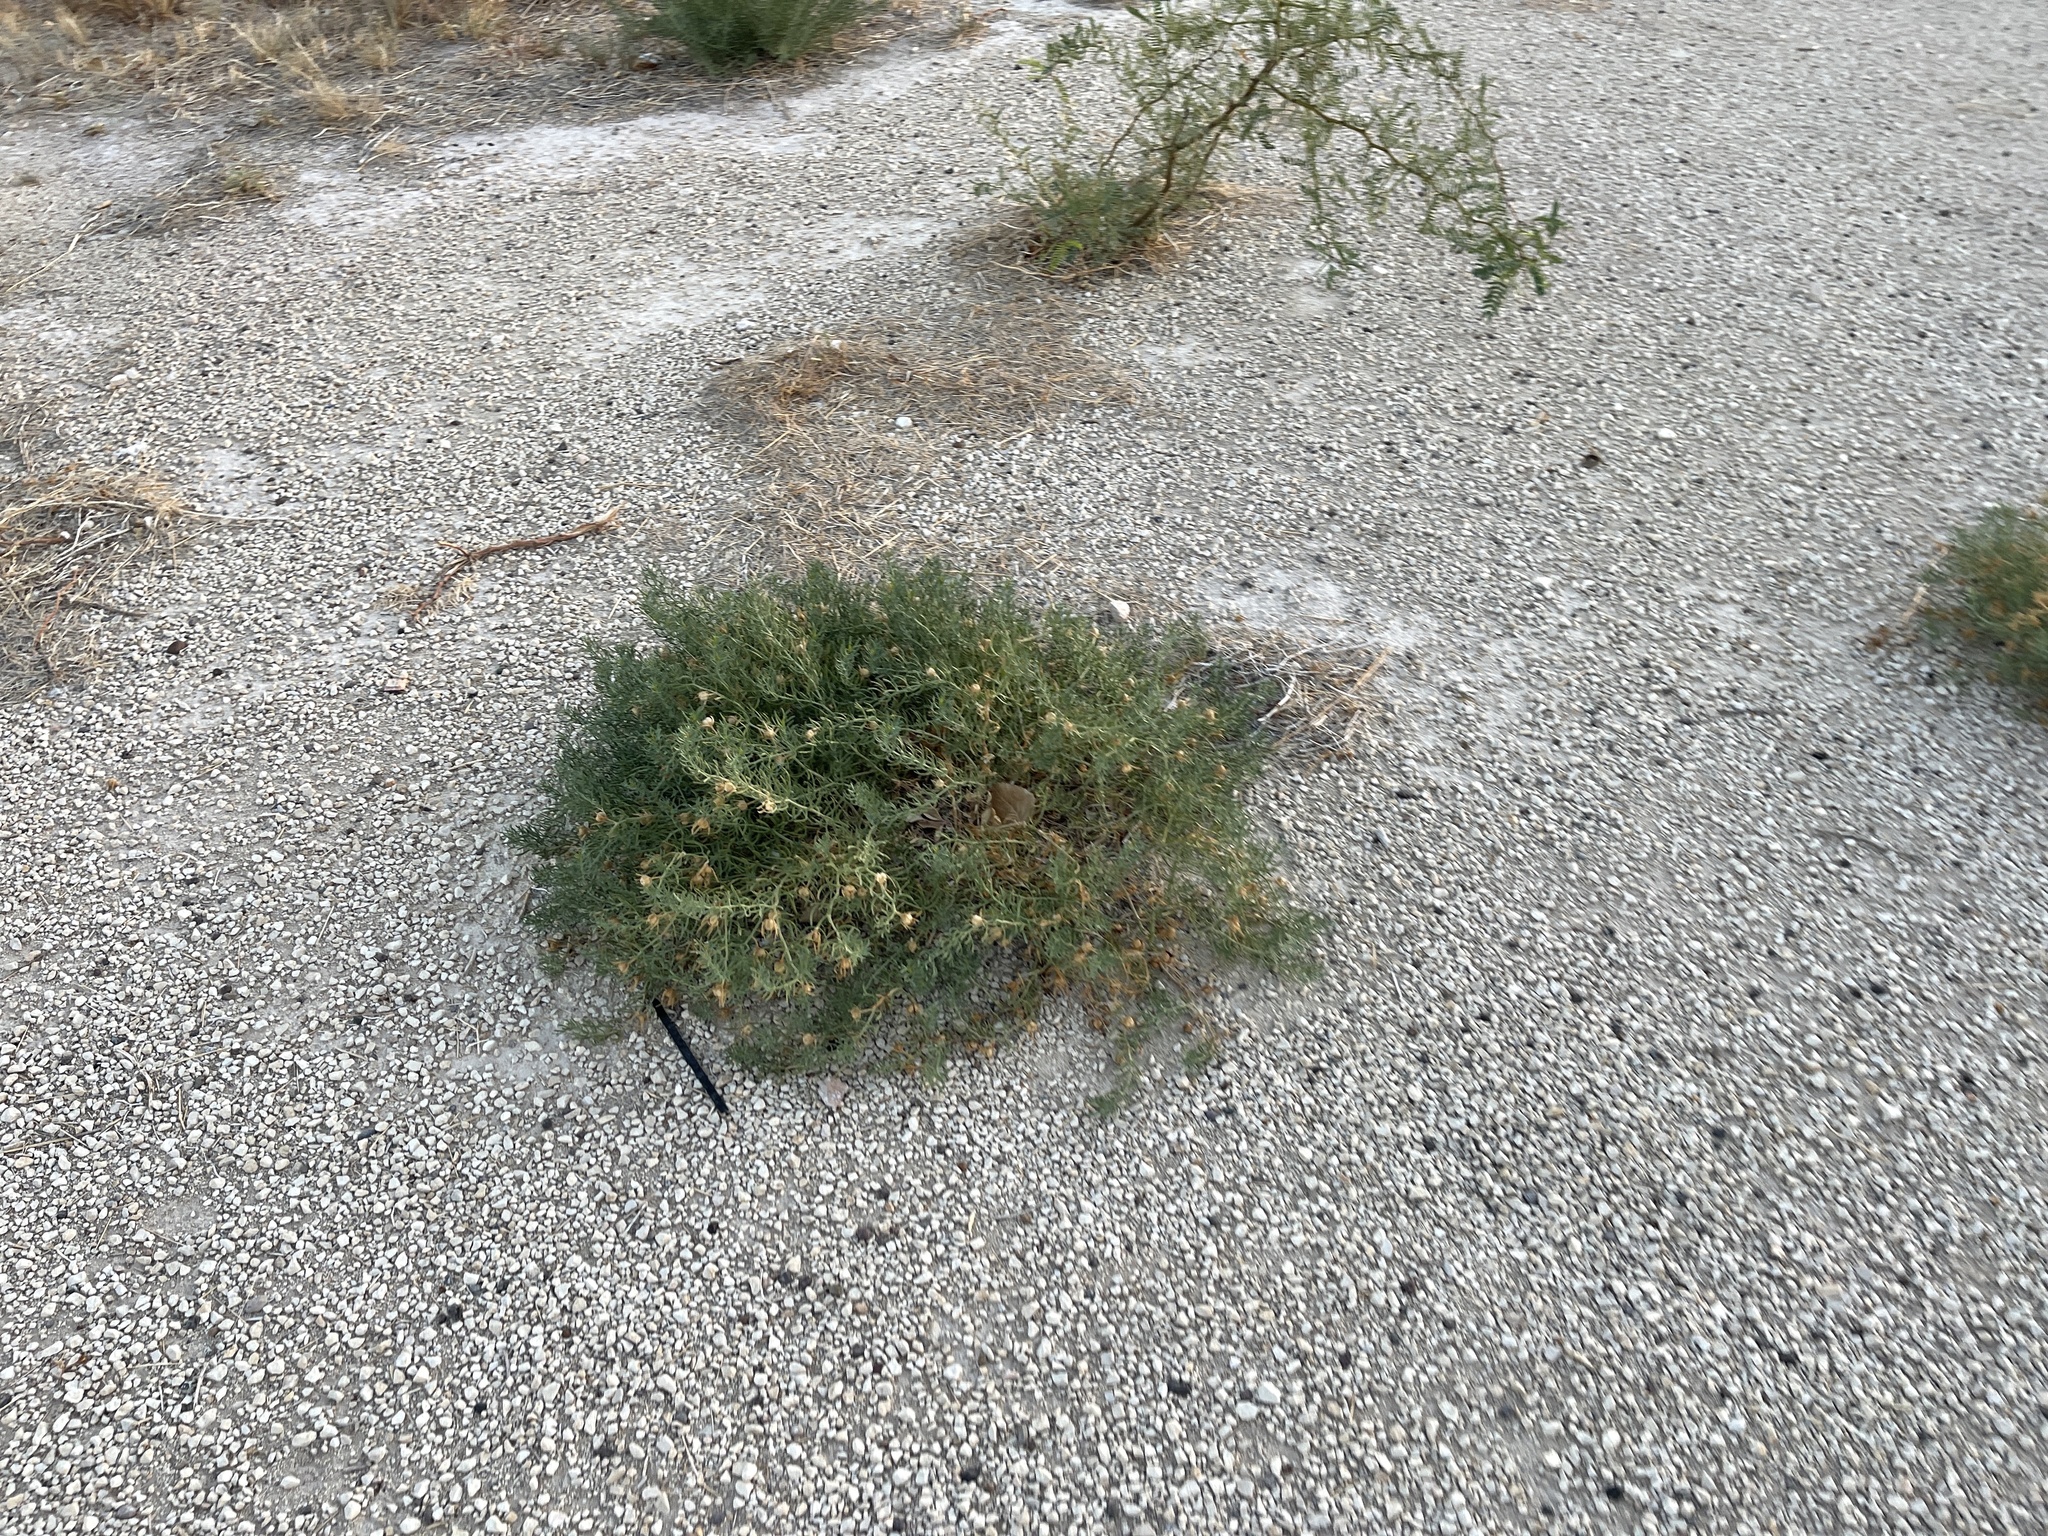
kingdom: Plantae
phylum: Tracheophyta
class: Magnoliopsida
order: Sapindales
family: Tetradiclidaceae
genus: Peganum
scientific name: Peganum harmala
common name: Harmal peganum
